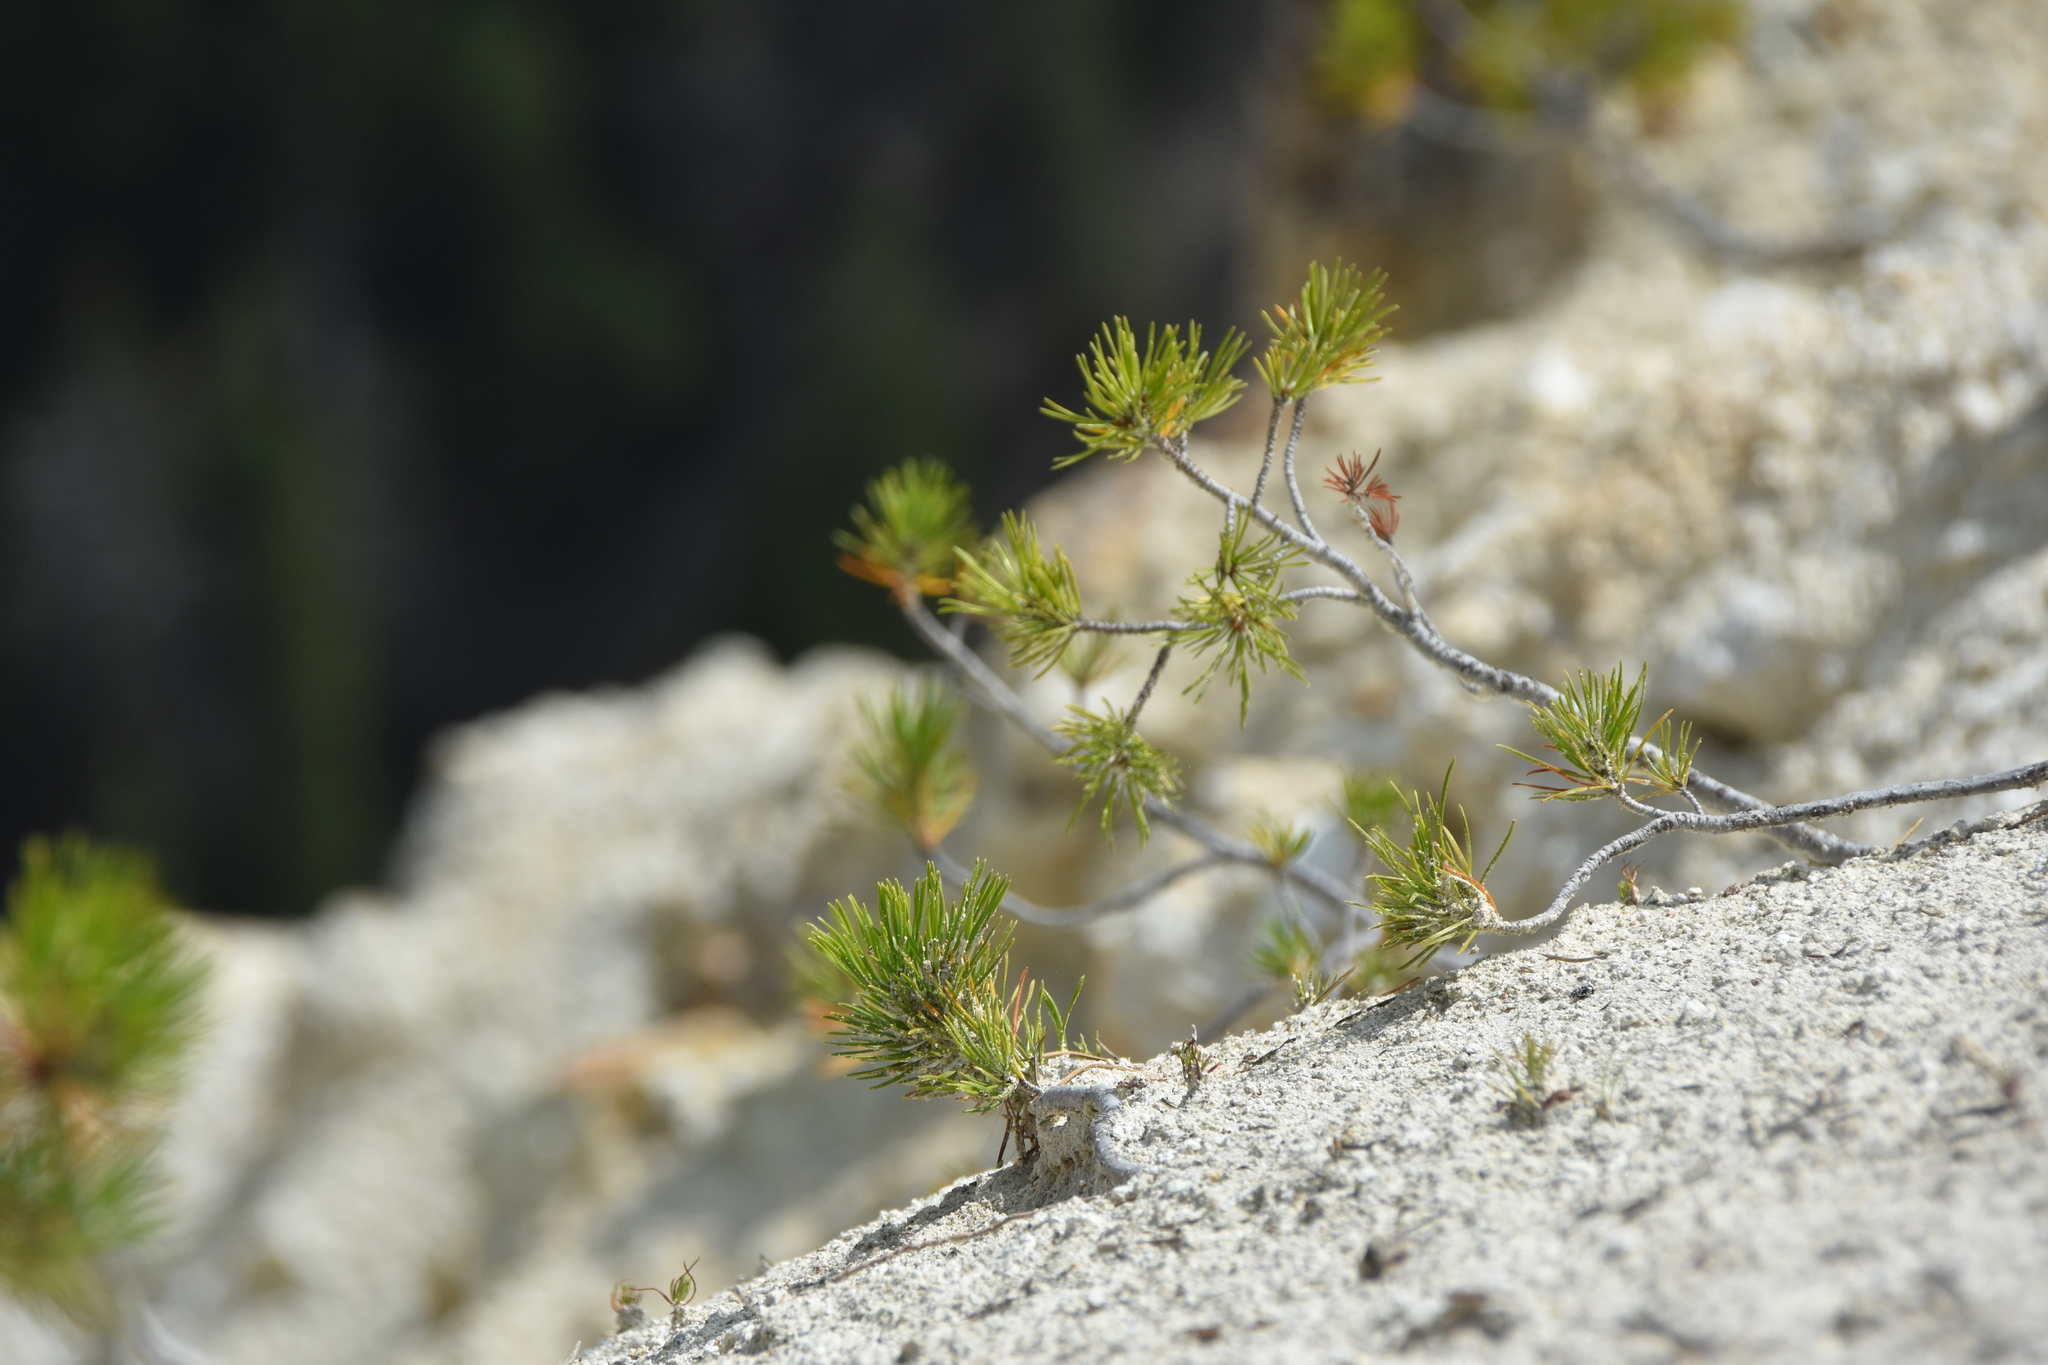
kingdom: Plantae
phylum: Tracheophyta
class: Pinopsida
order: Pinales
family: Pinaceae
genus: Pinus
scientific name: Pinus contorta
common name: Lodgepole pine
